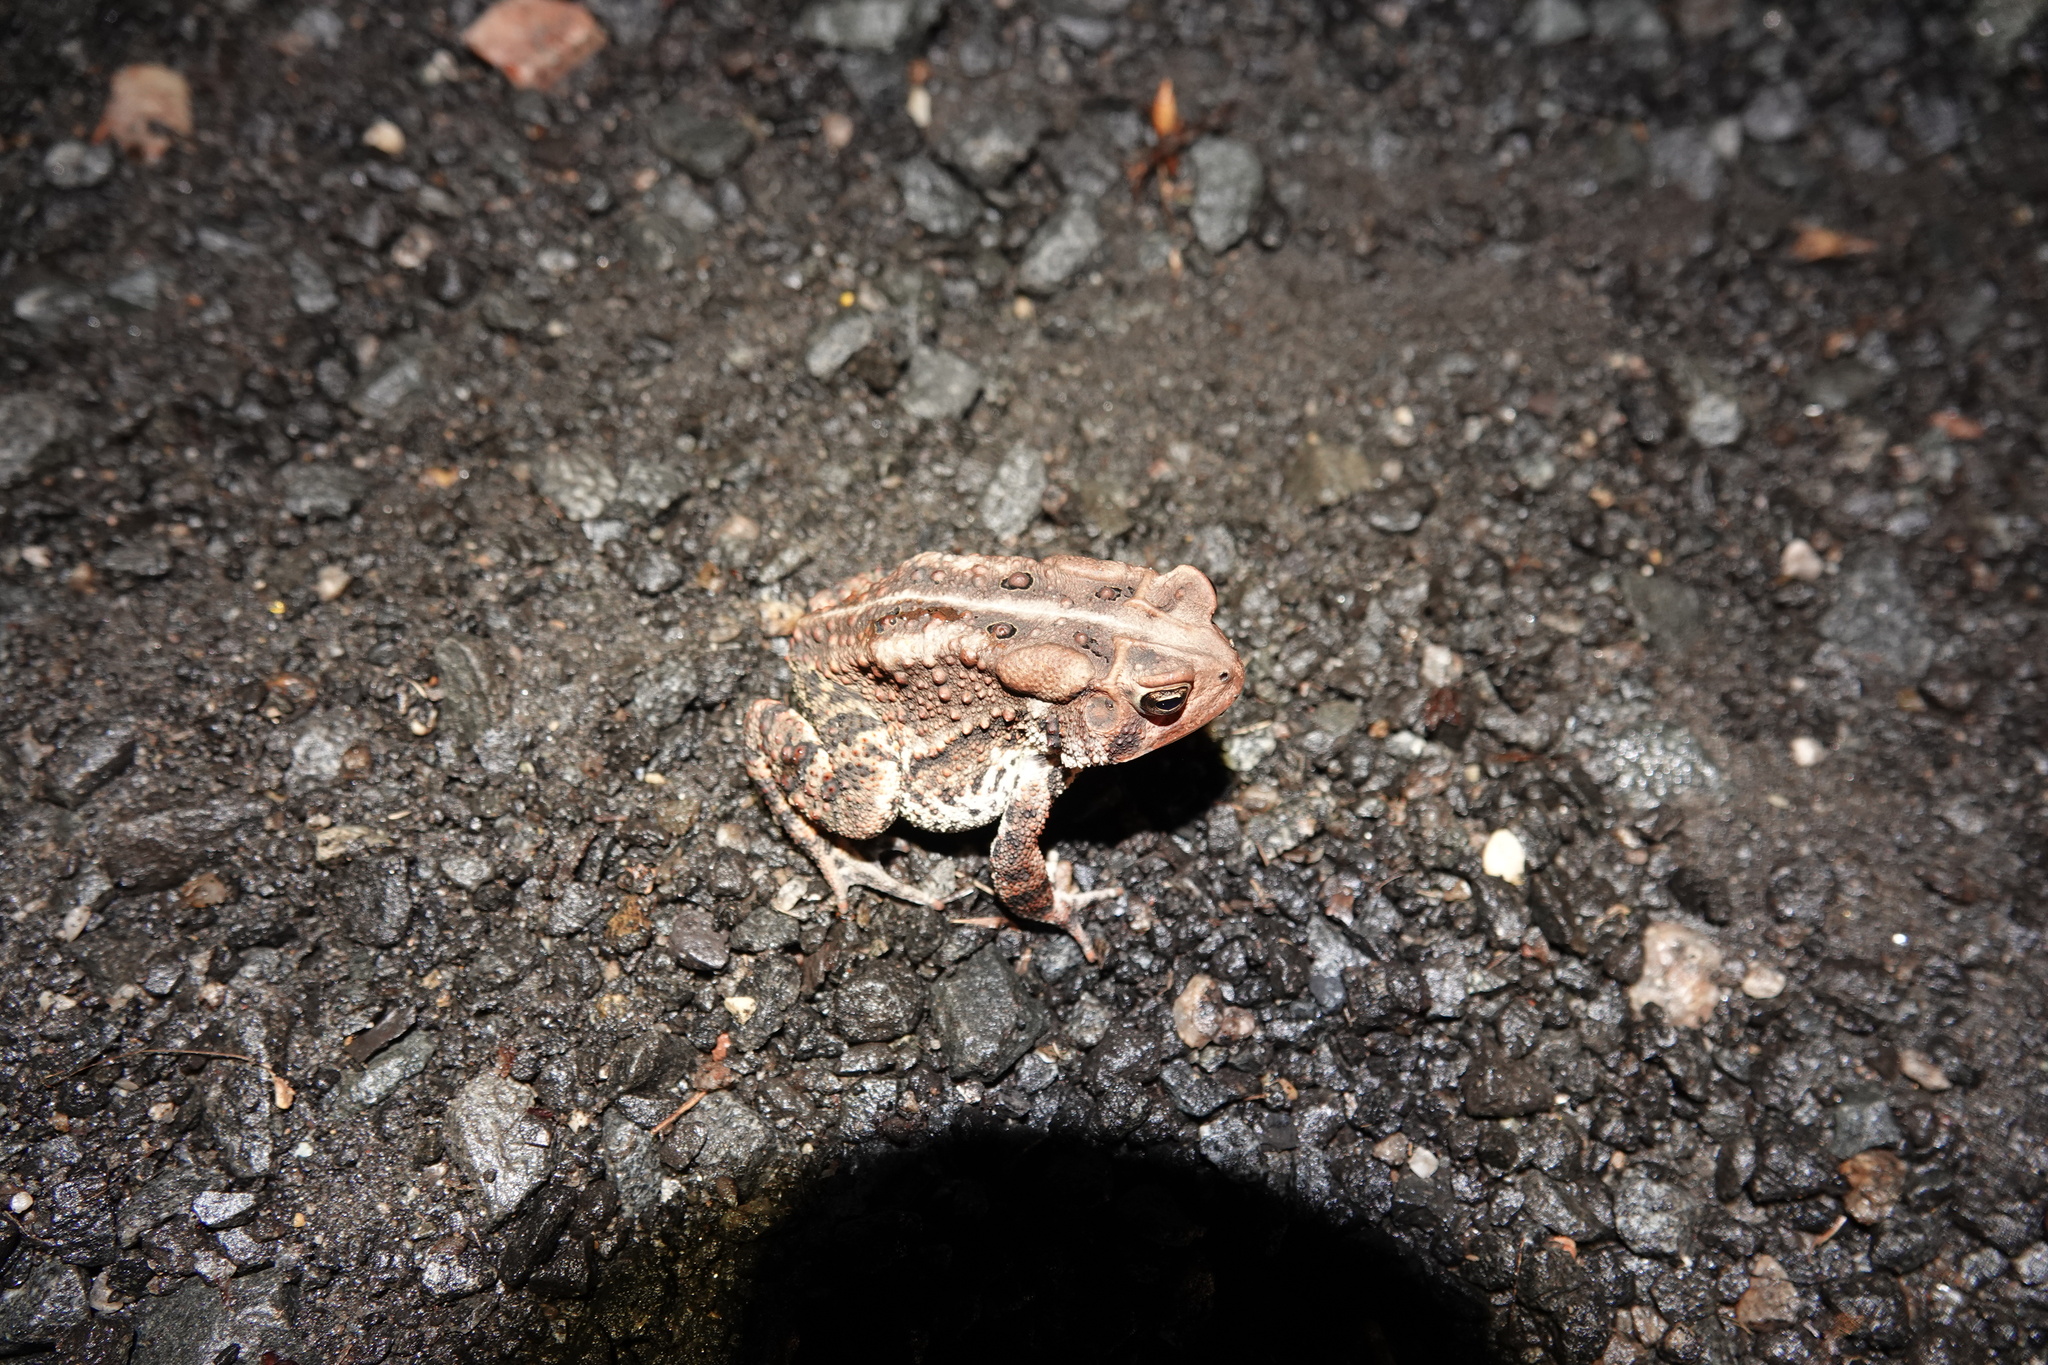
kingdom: Animalia
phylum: Chordata
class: Amphibia
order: Anura
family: Bufonidae
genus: Anaxyrus
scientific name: Anaxyrus americanus
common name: American toad
